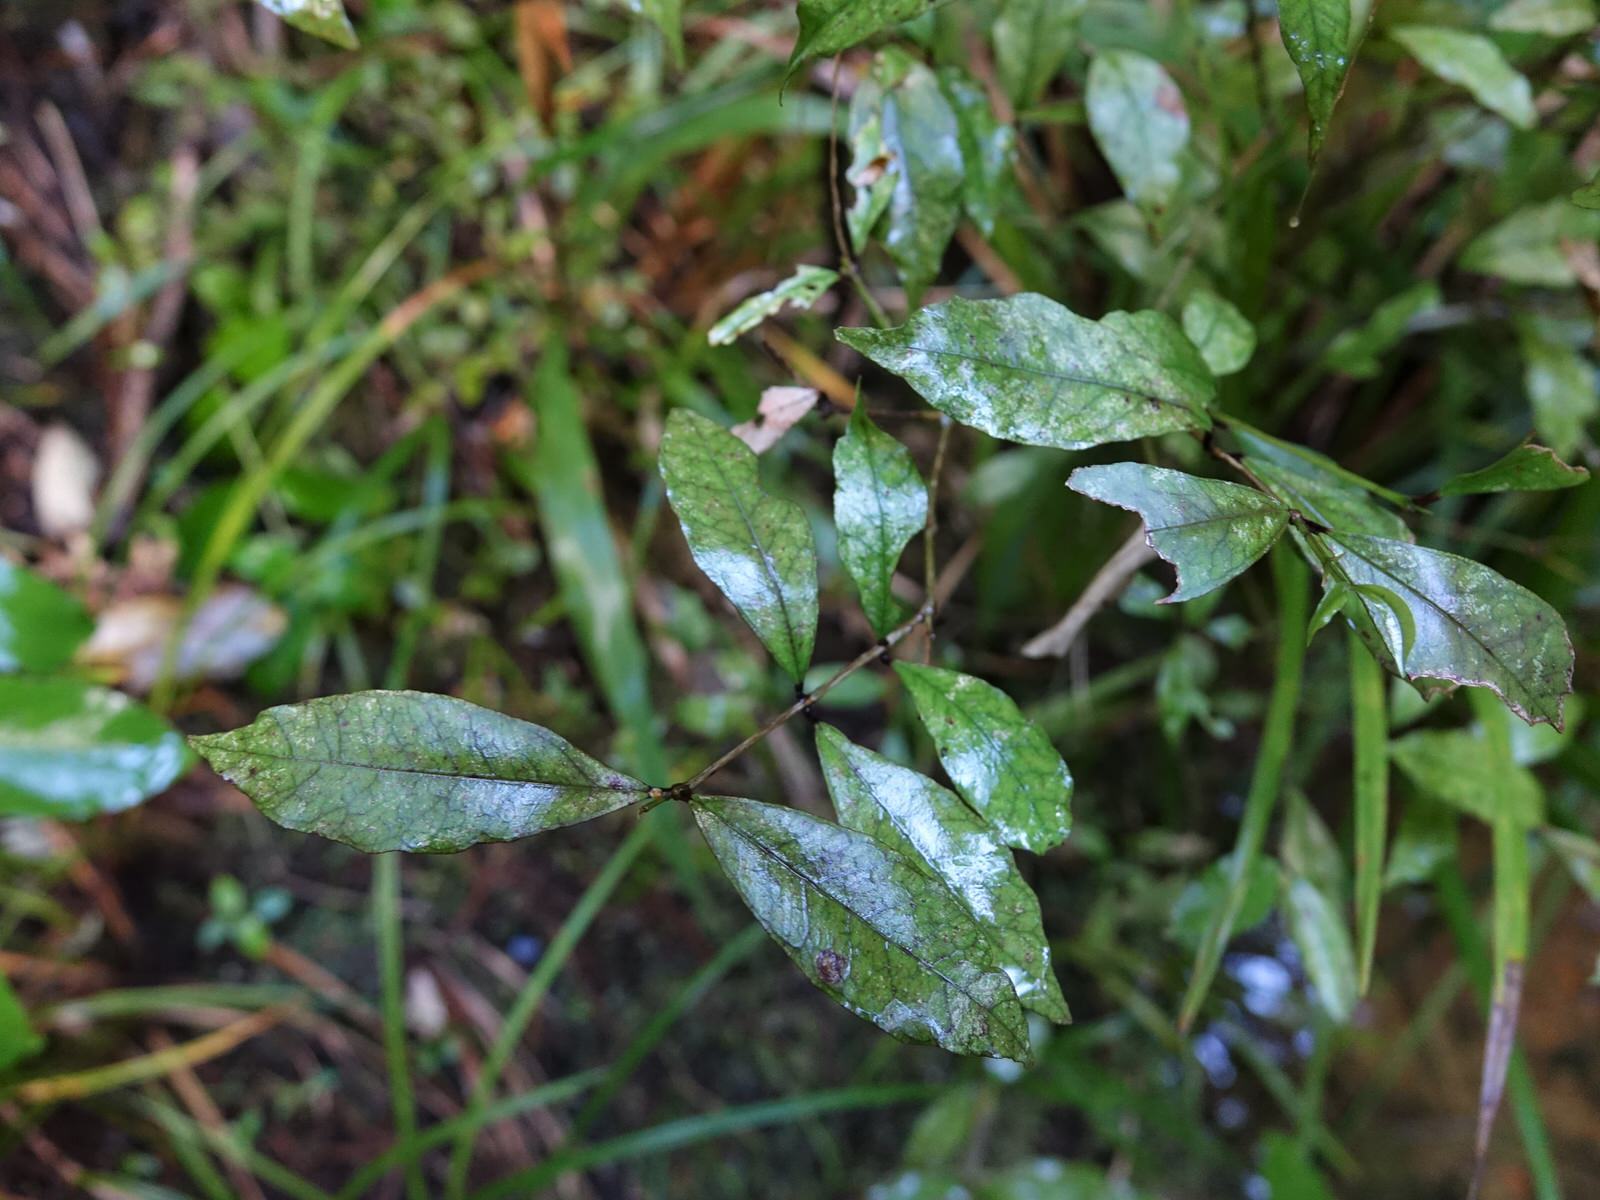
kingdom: Plantae
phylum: Tracheophyta
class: Magnoliopsida
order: Myrtales
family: Myrtaceae
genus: Syzygium
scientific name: Syzygium maire
